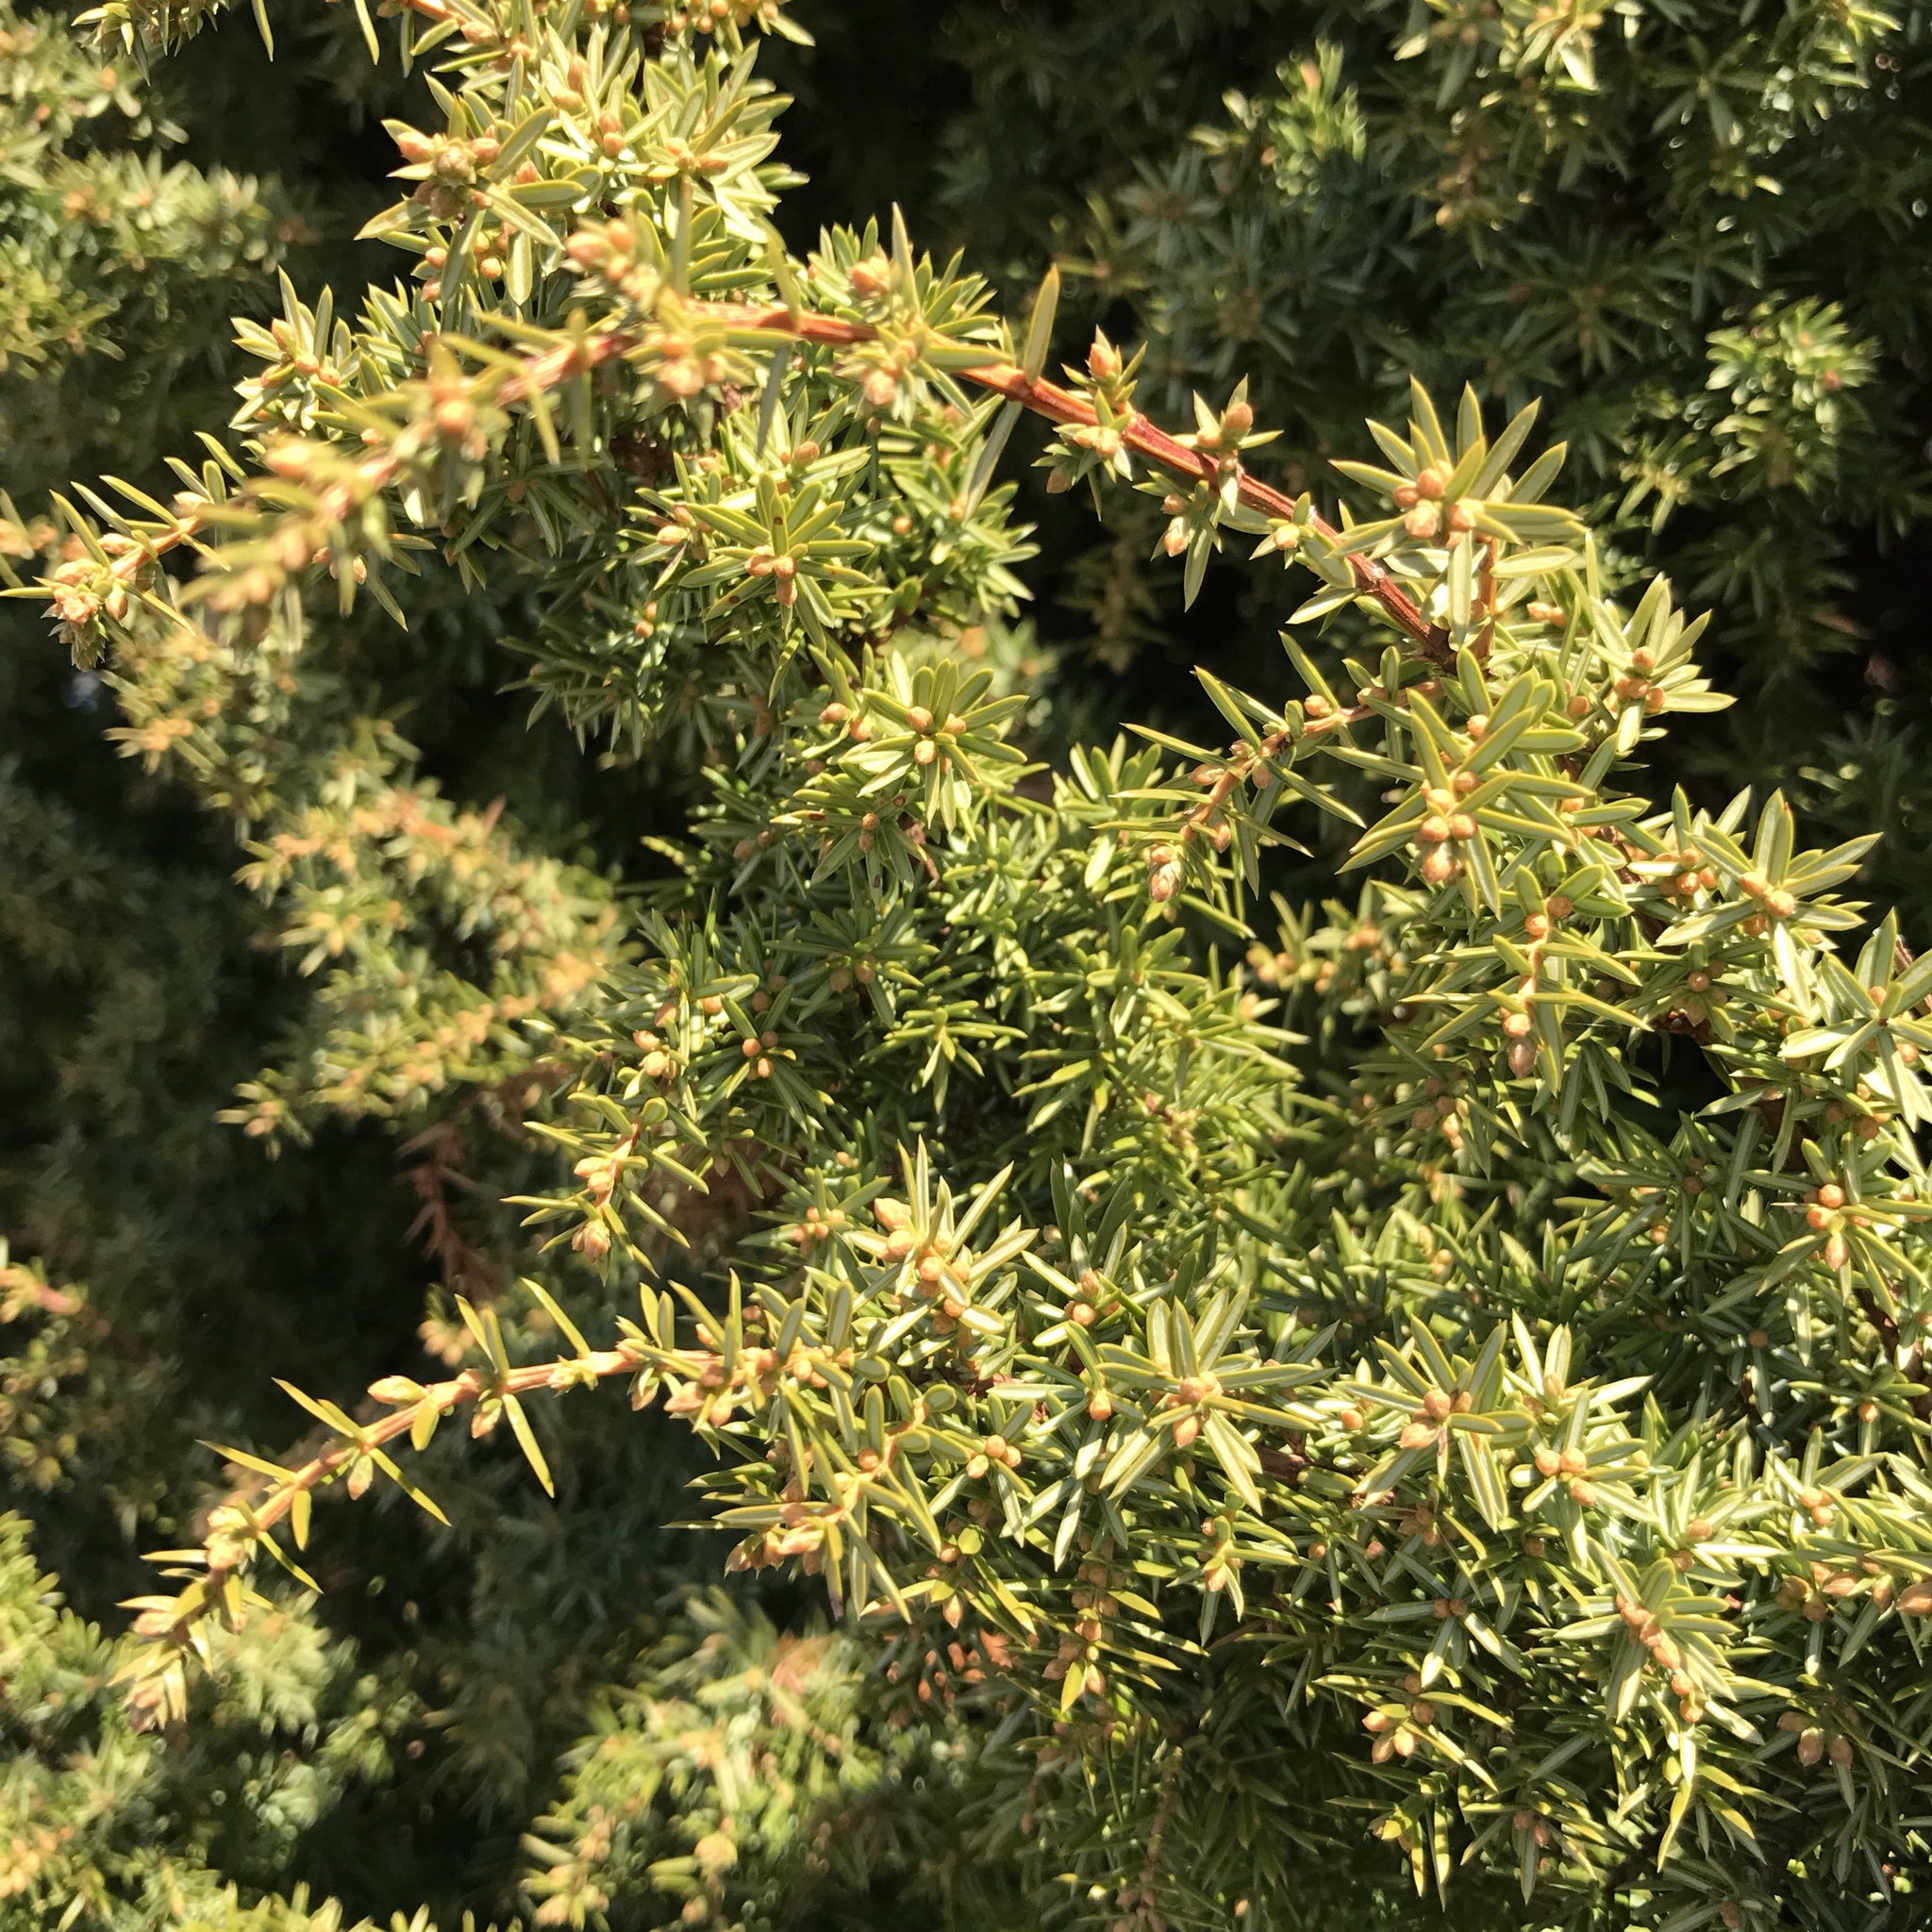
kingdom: Plantae
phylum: Tracheophyta
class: Pinopsida
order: Pinales
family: Cupressaceae
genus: Juniperus
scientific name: Juniperus communis
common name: Common juniper
